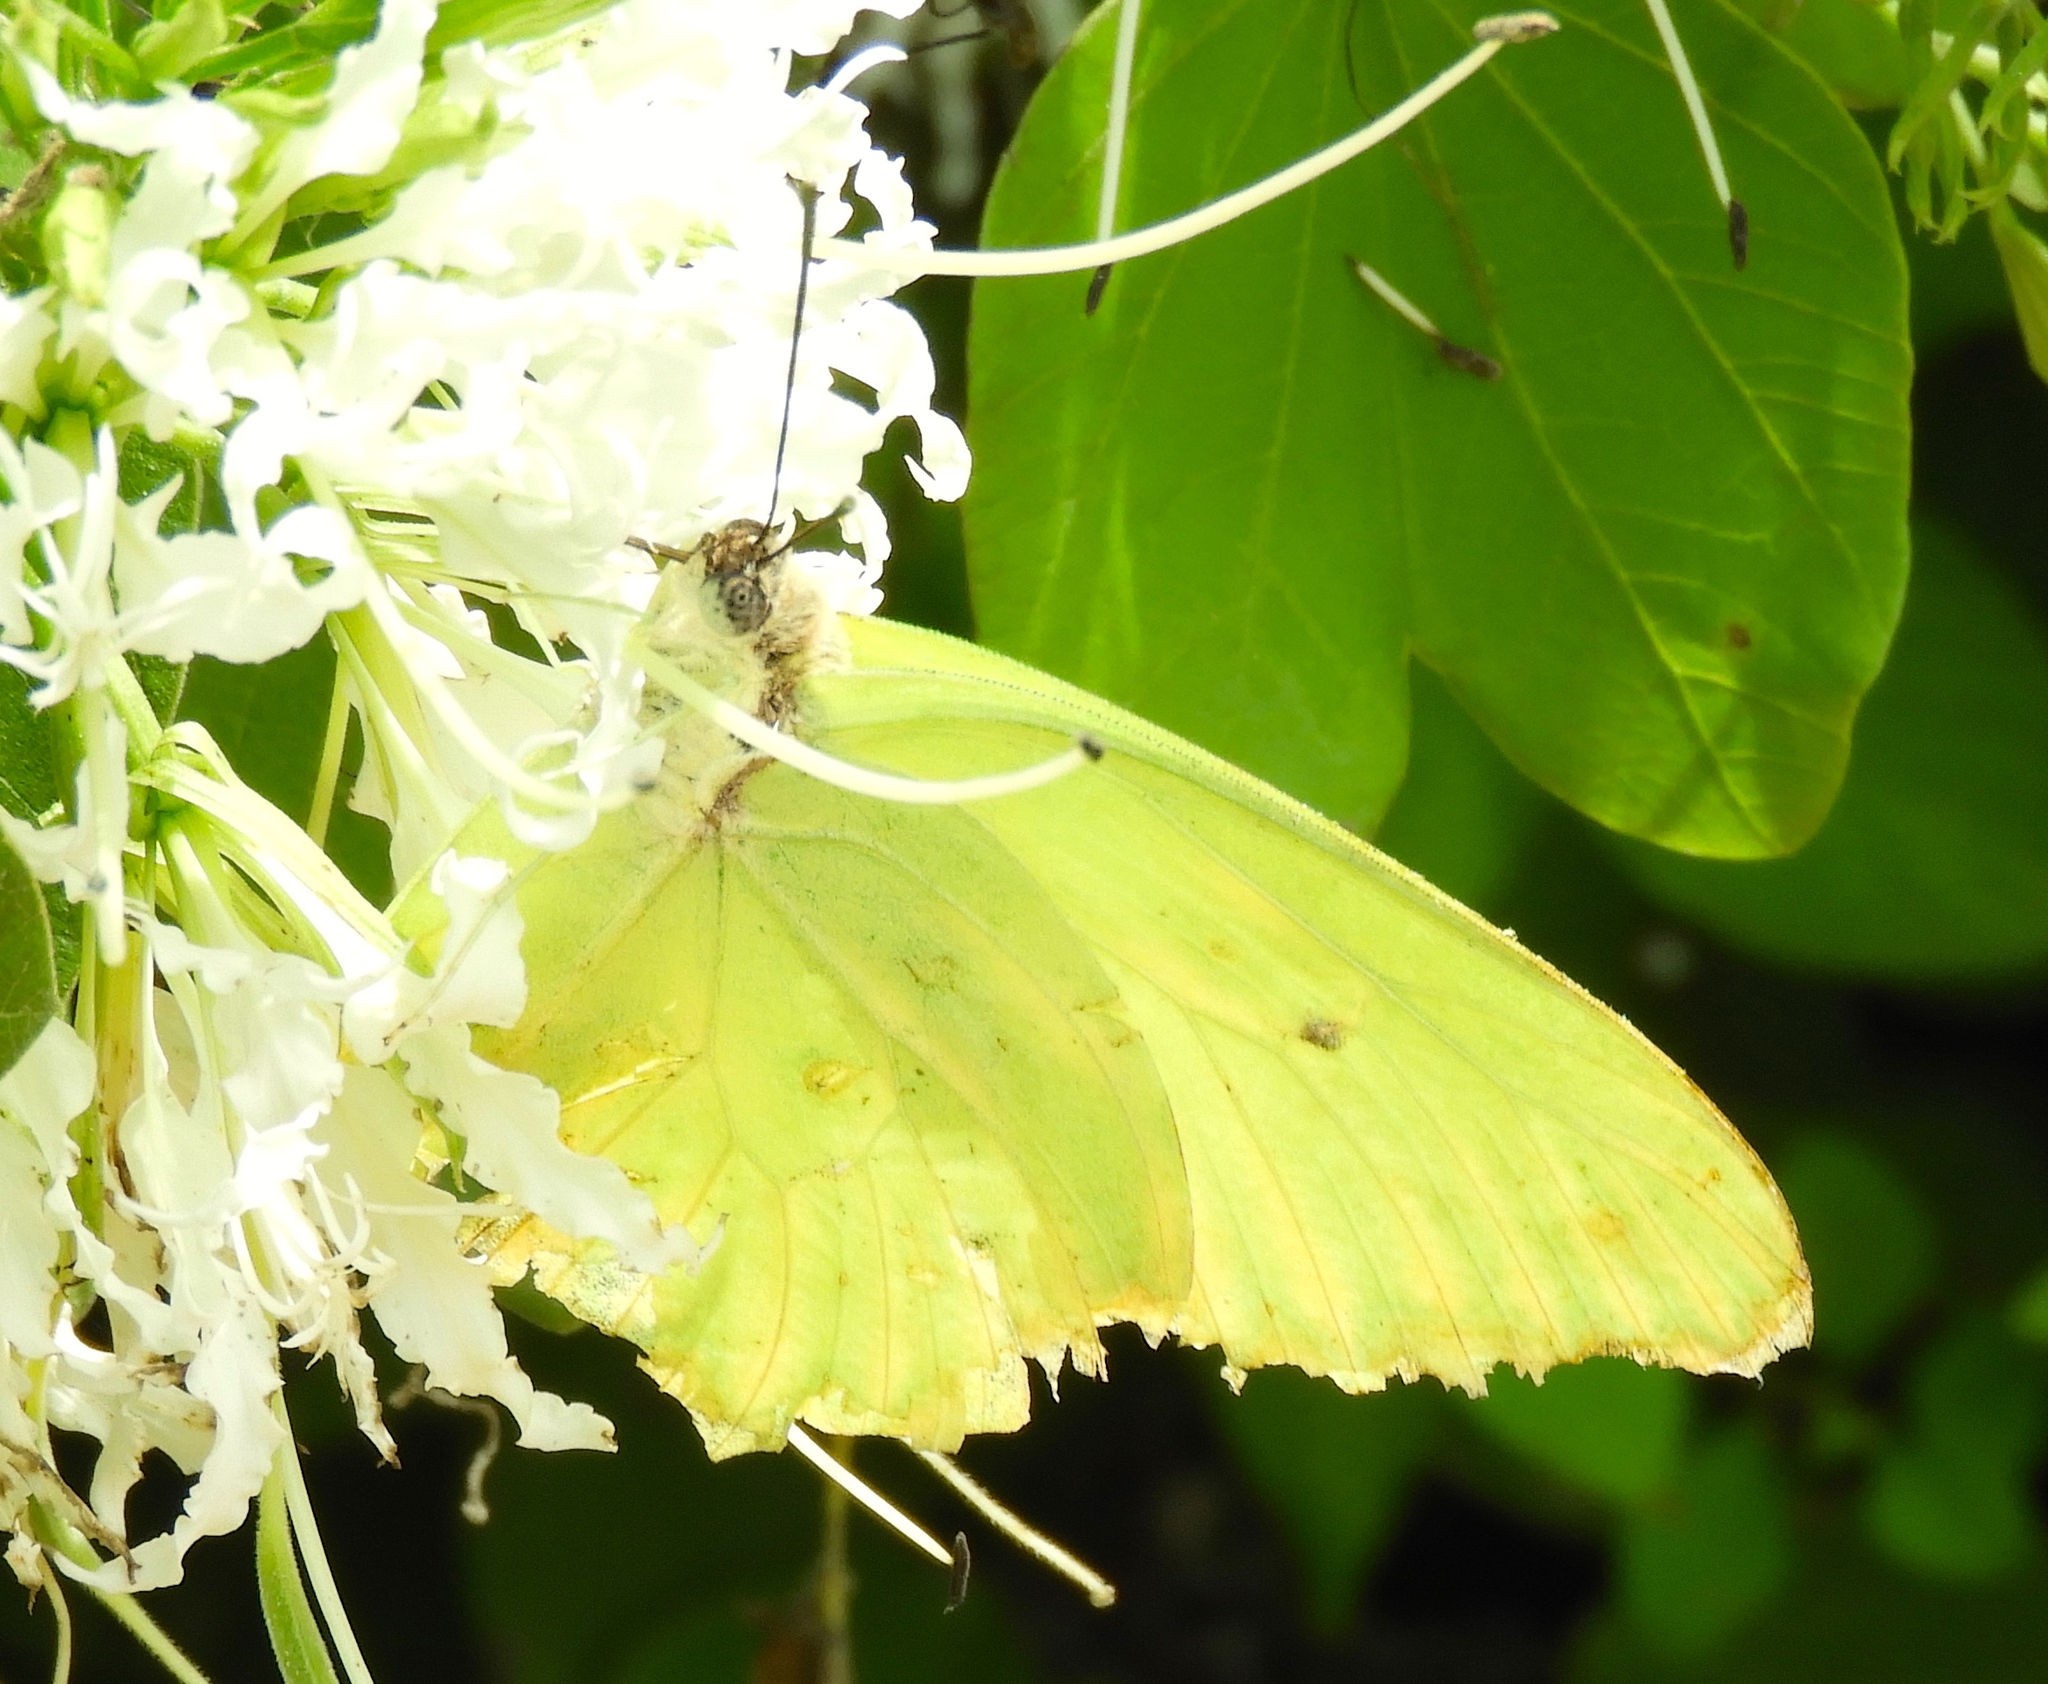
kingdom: Animalia
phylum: Arthropoda
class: Insecta
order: Lepidoptera
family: Pieridae
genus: Anteos
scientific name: Anteos maerula
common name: Angled sulphur
